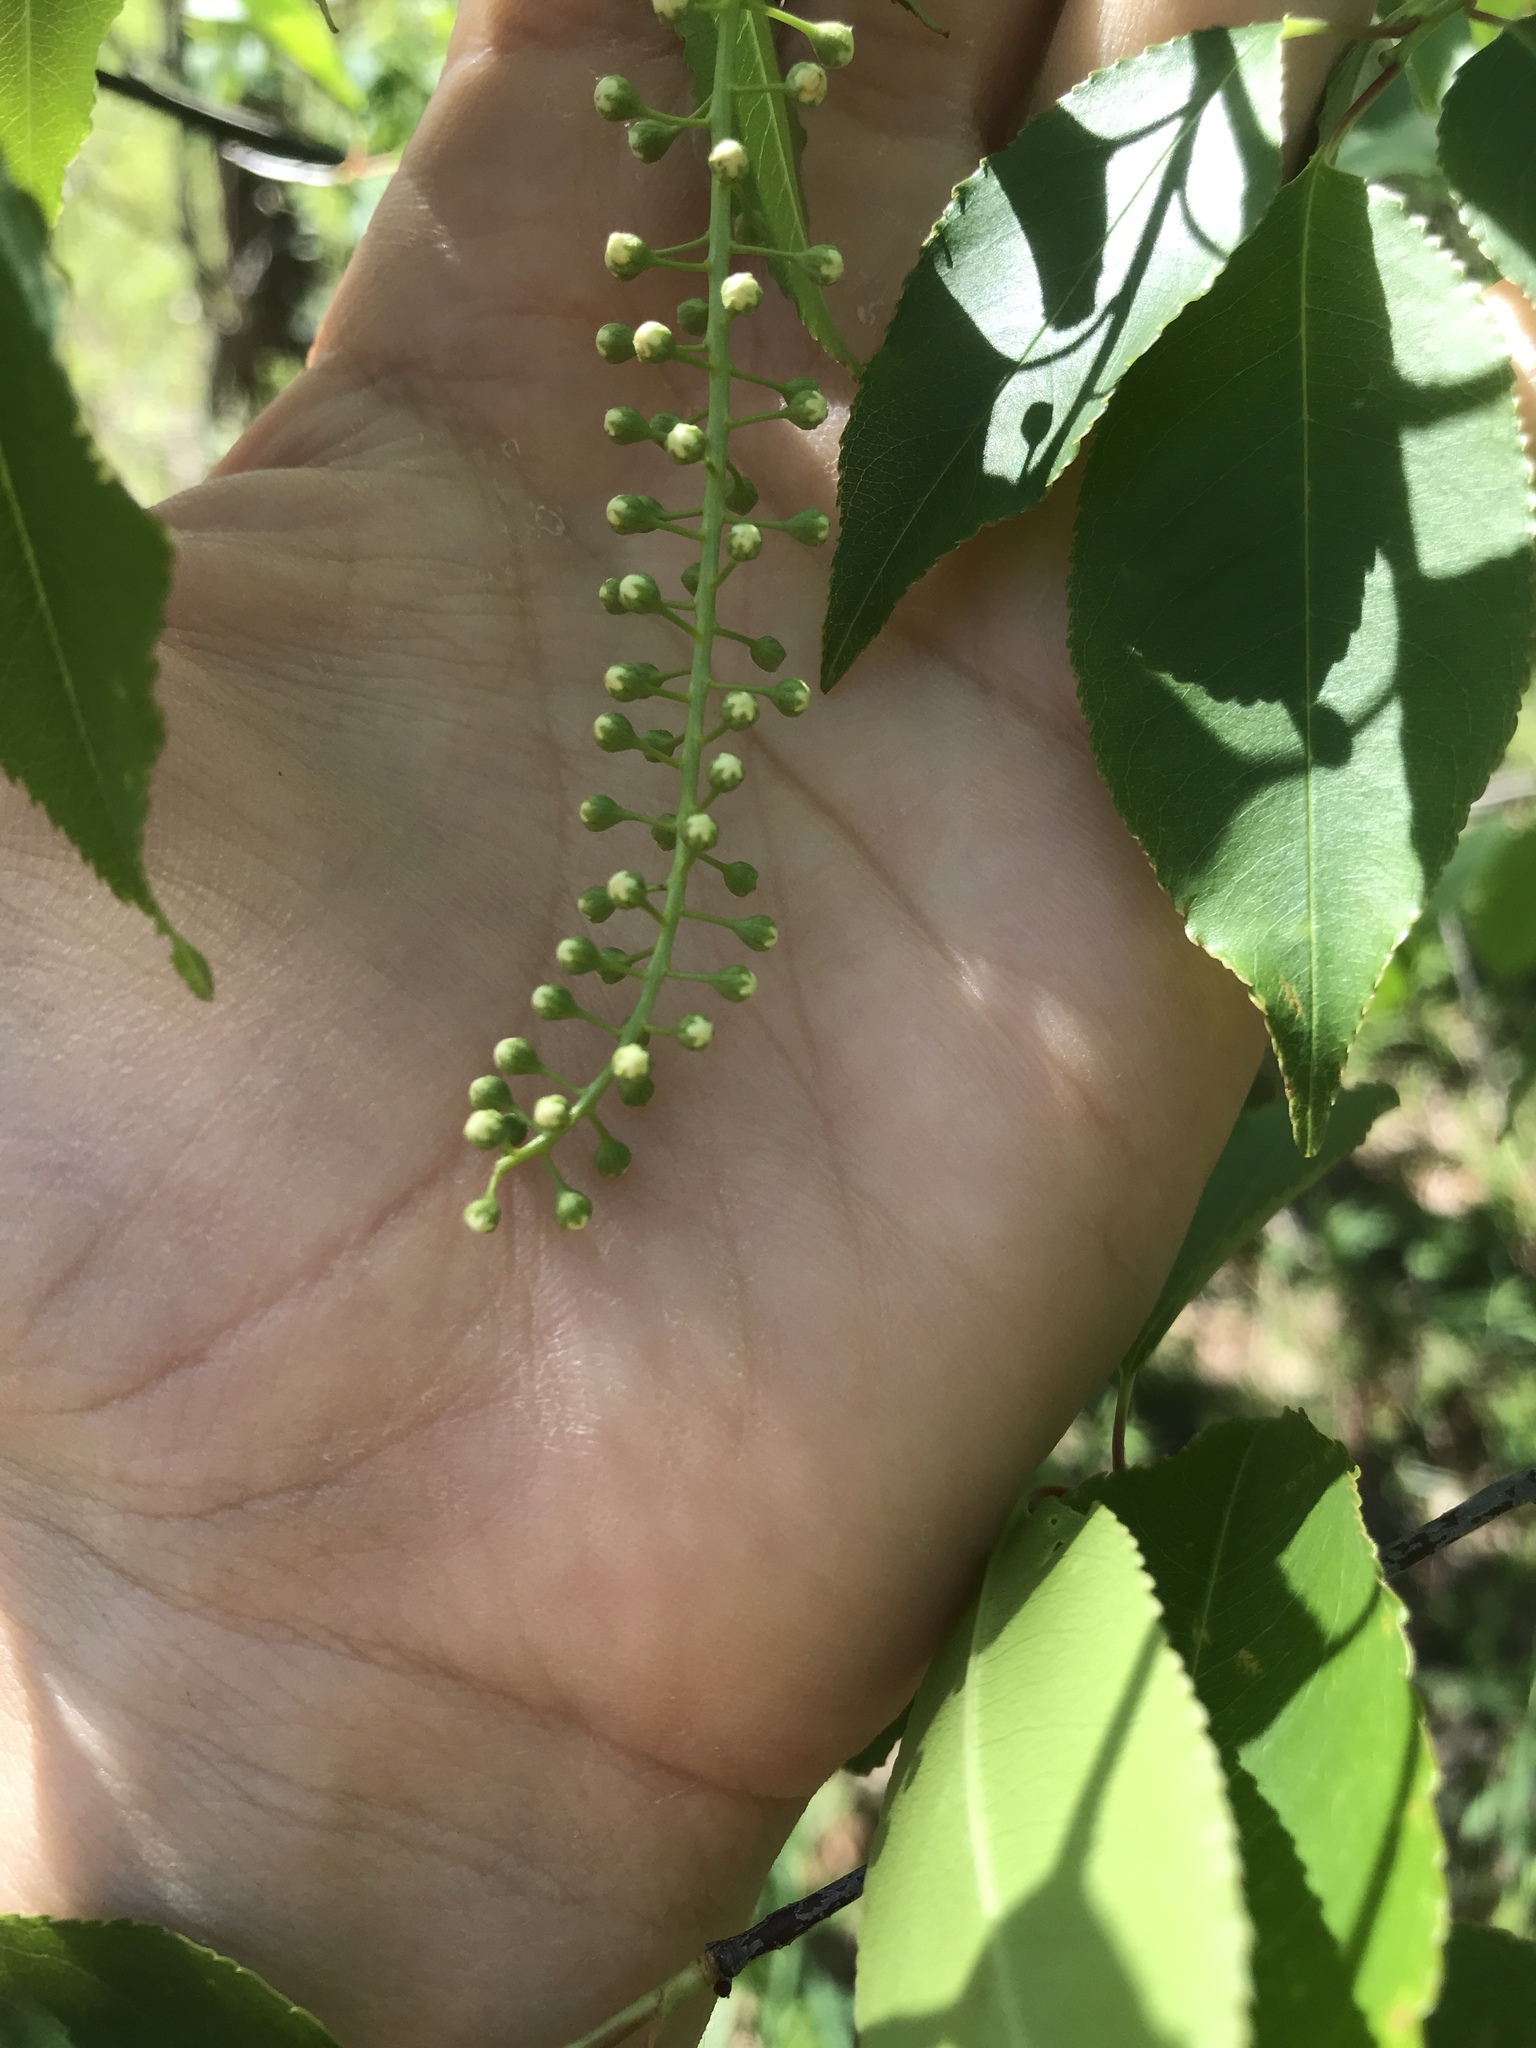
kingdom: Plantae
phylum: Tracheophyta
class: Magnoliopsida
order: Rosales
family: Rosaceae
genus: Prunus
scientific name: Prunus serotina
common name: Black cherry
